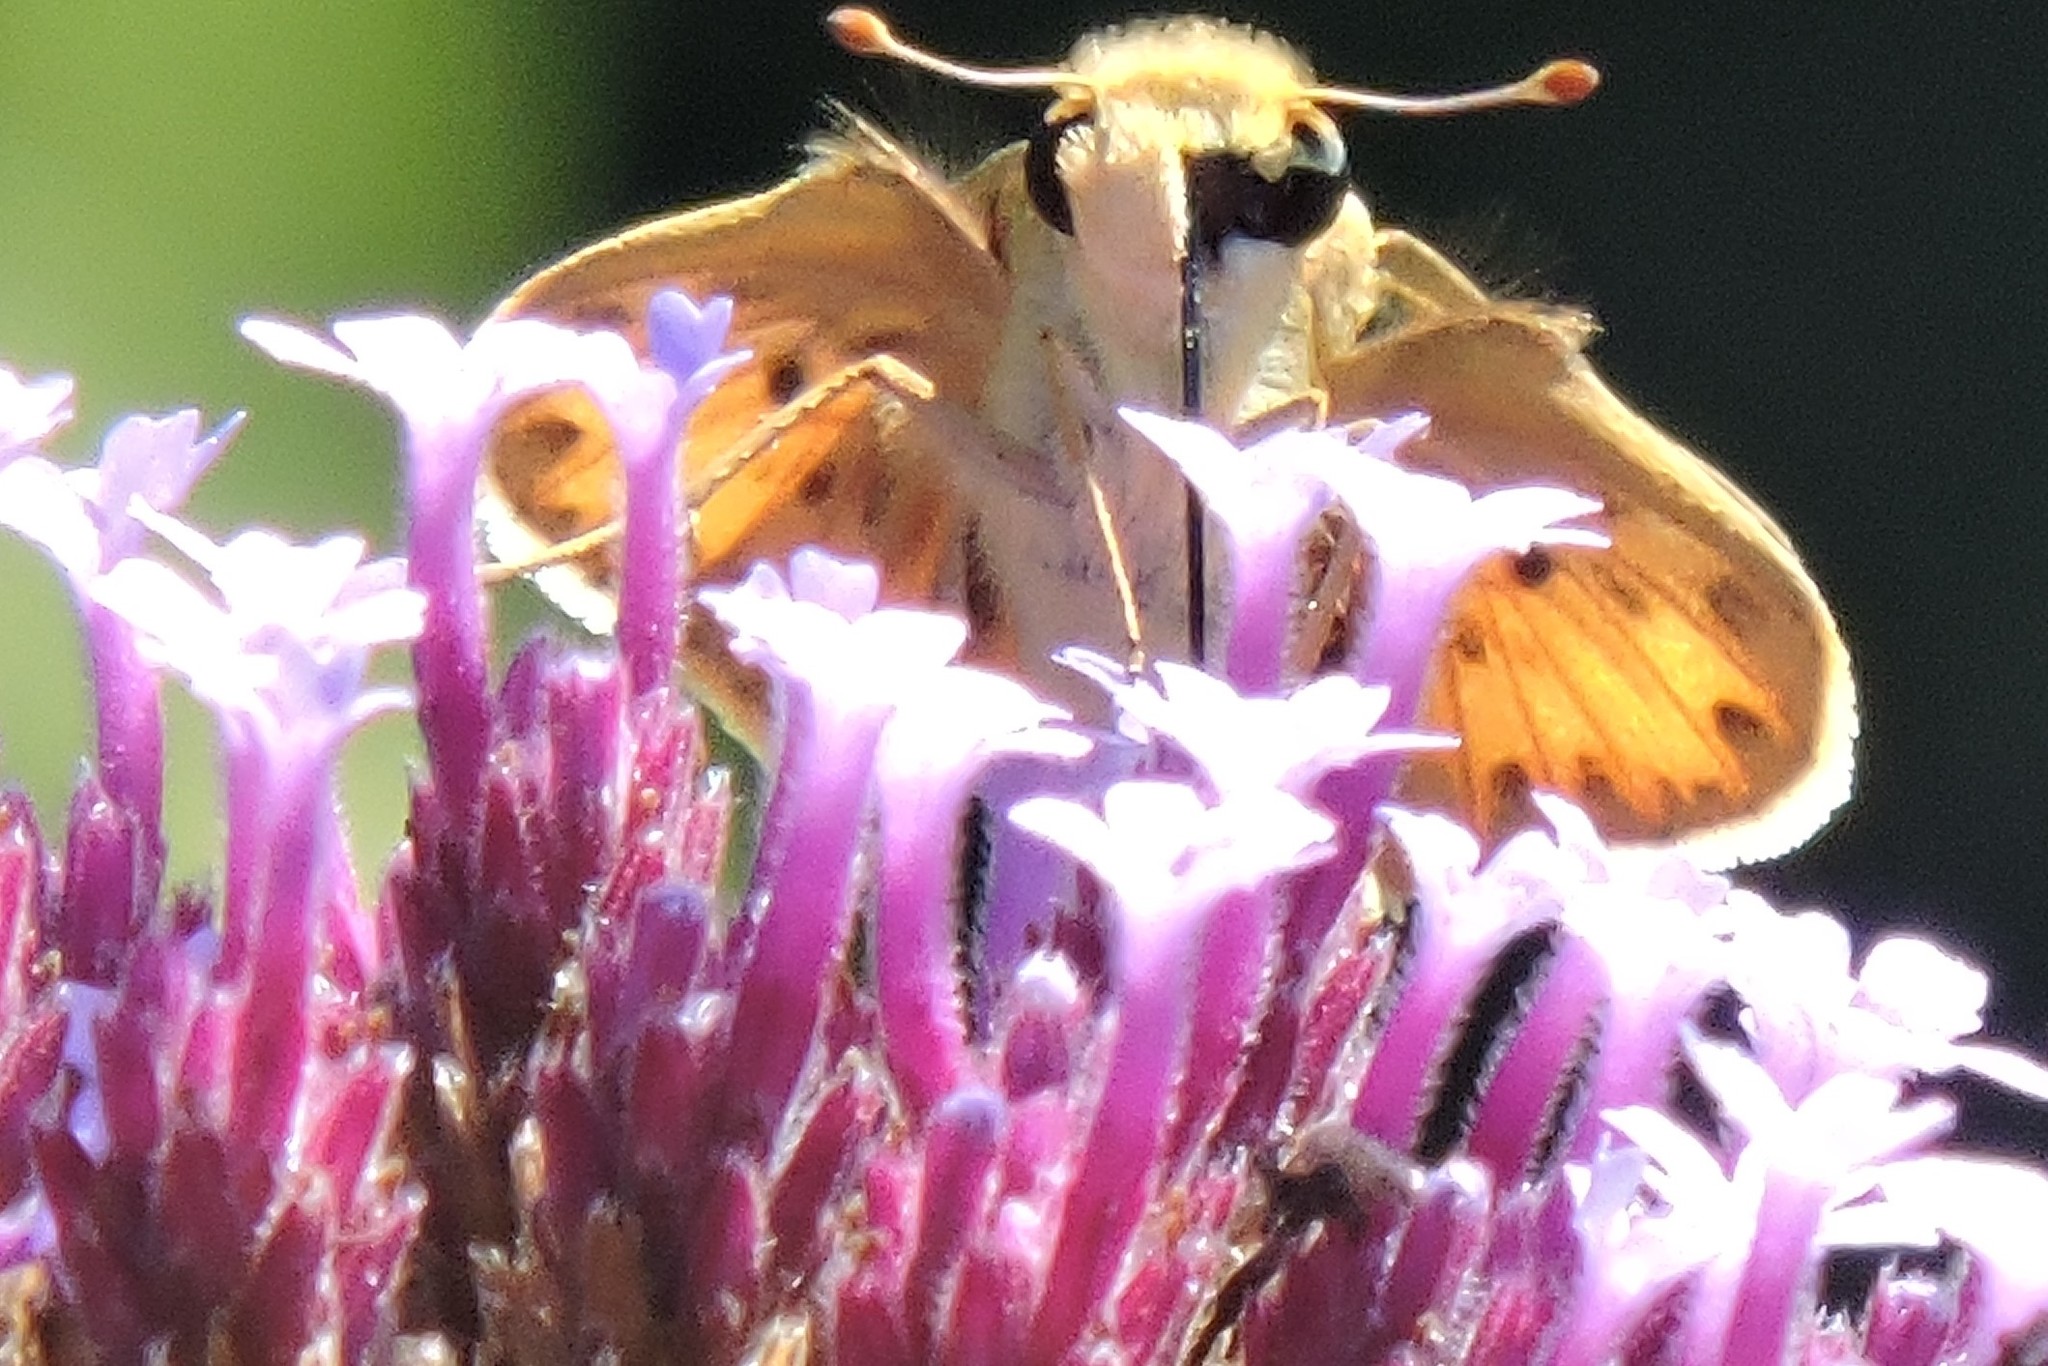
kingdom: Animalia
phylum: Arthropoda
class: Insecta
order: Lepidoptera
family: Hesperiidae
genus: Hylephila
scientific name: Hylephila phyleus
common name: Fiery skipper
